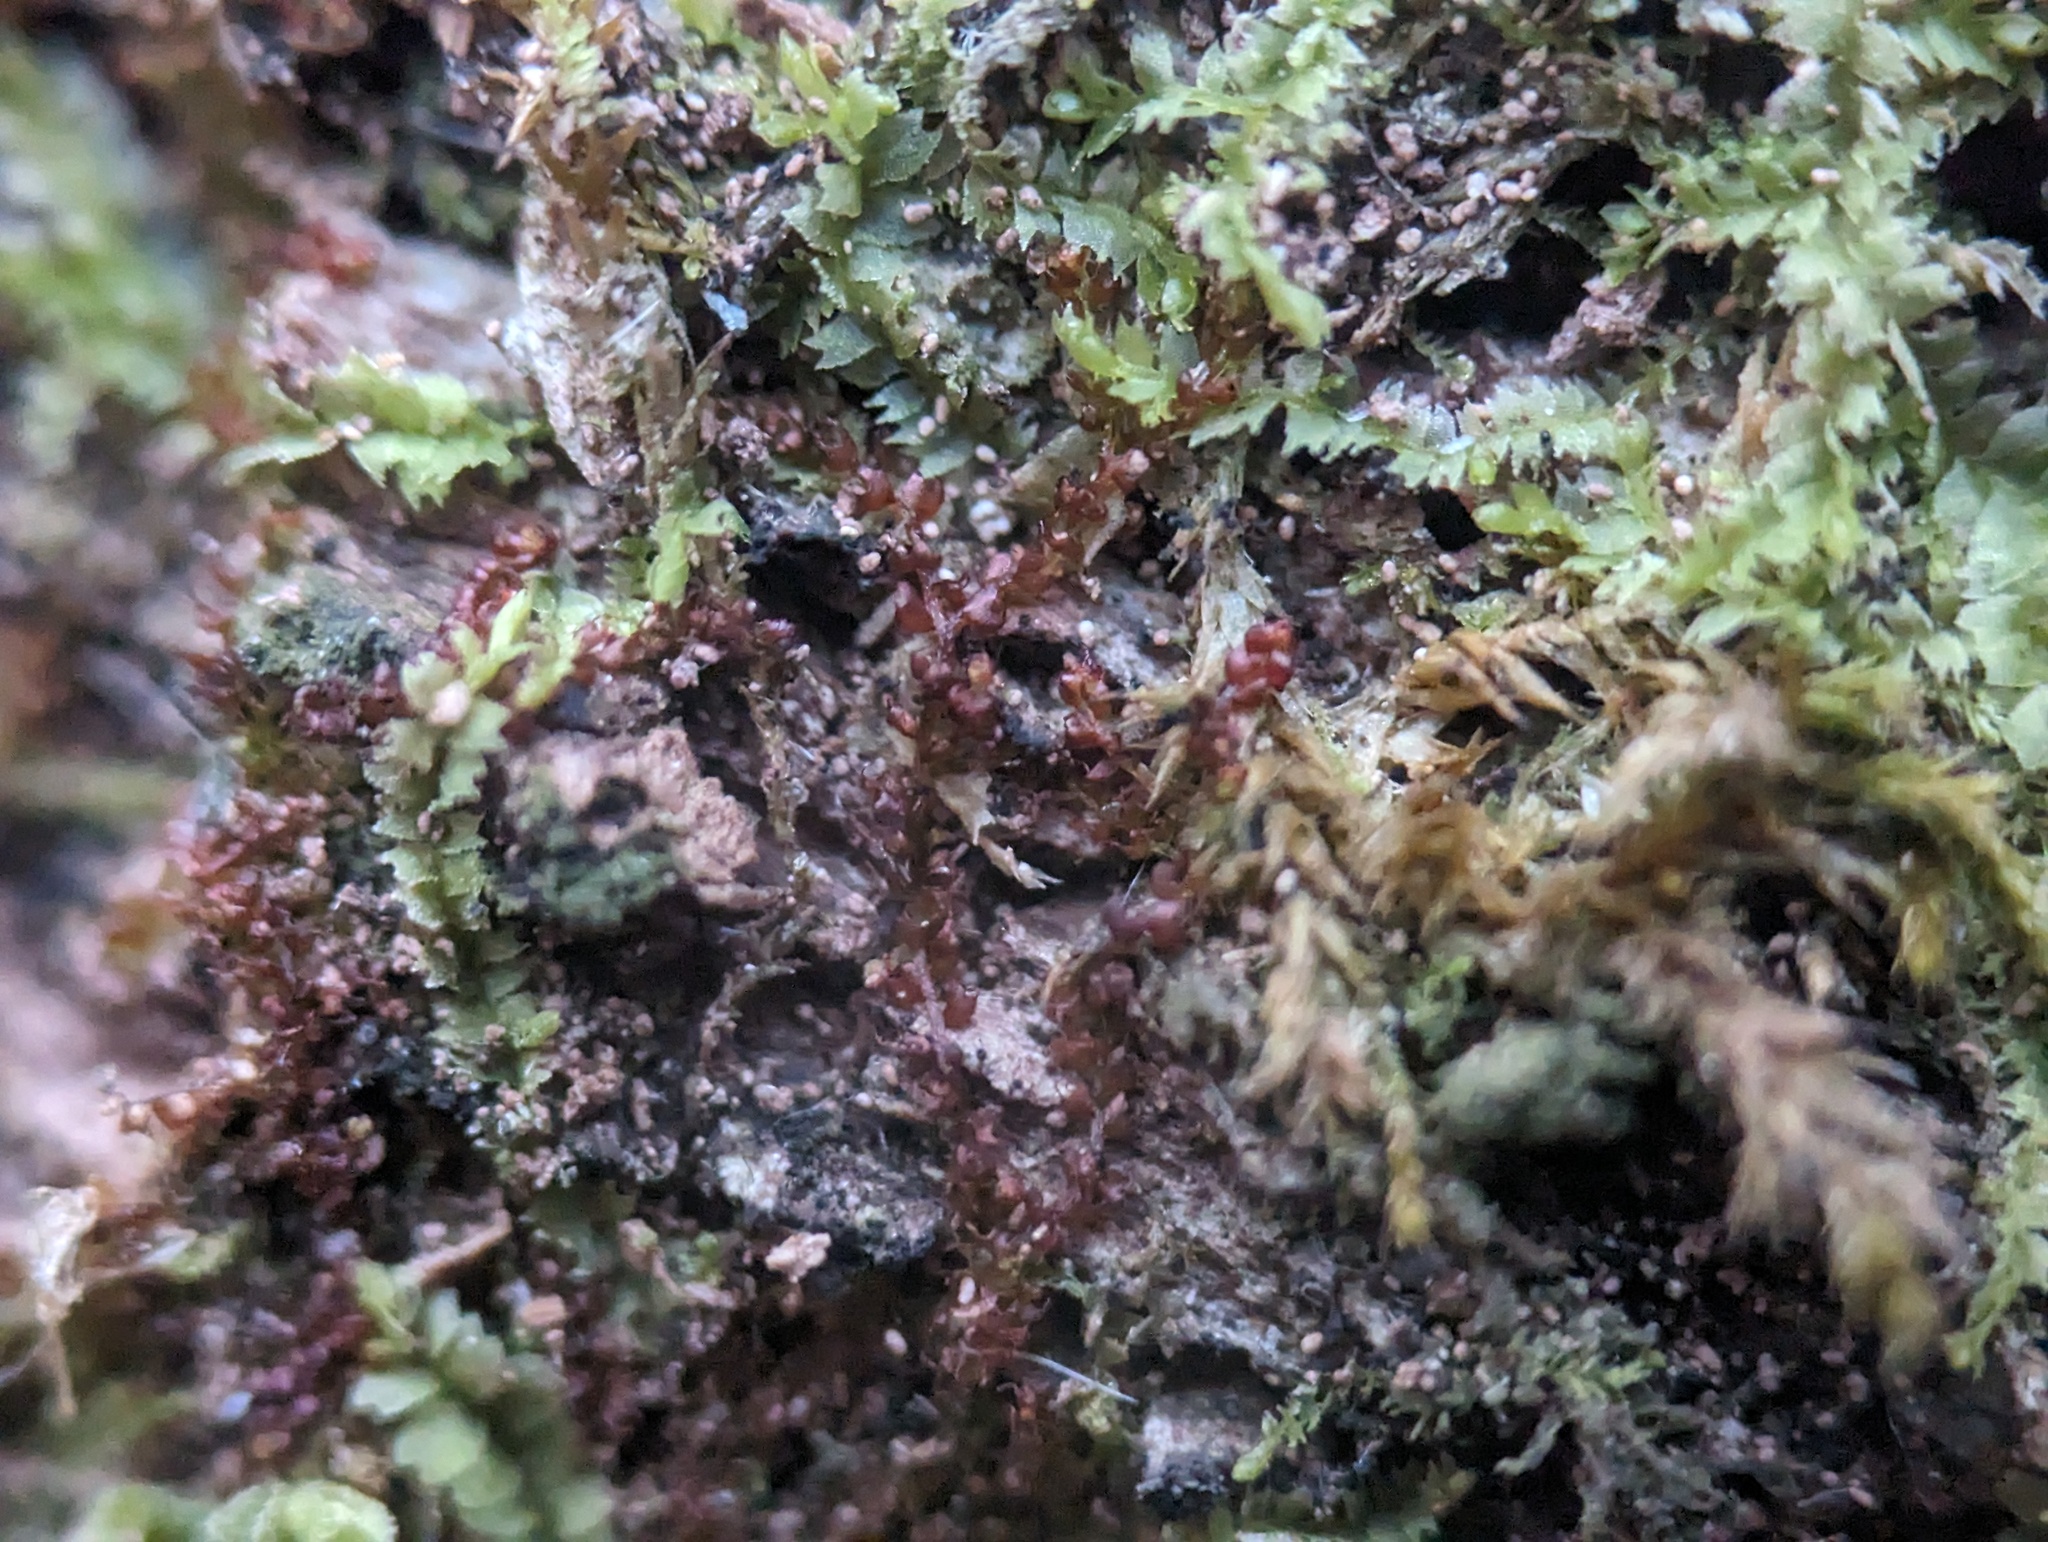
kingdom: Plantae
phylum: Marchantiophyta
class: Jungermanniopsida
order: Jungermanniales
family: Cephaloziaceae
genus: Nowellia
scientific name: Nowellia curvifolia
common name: Wood rustwort
